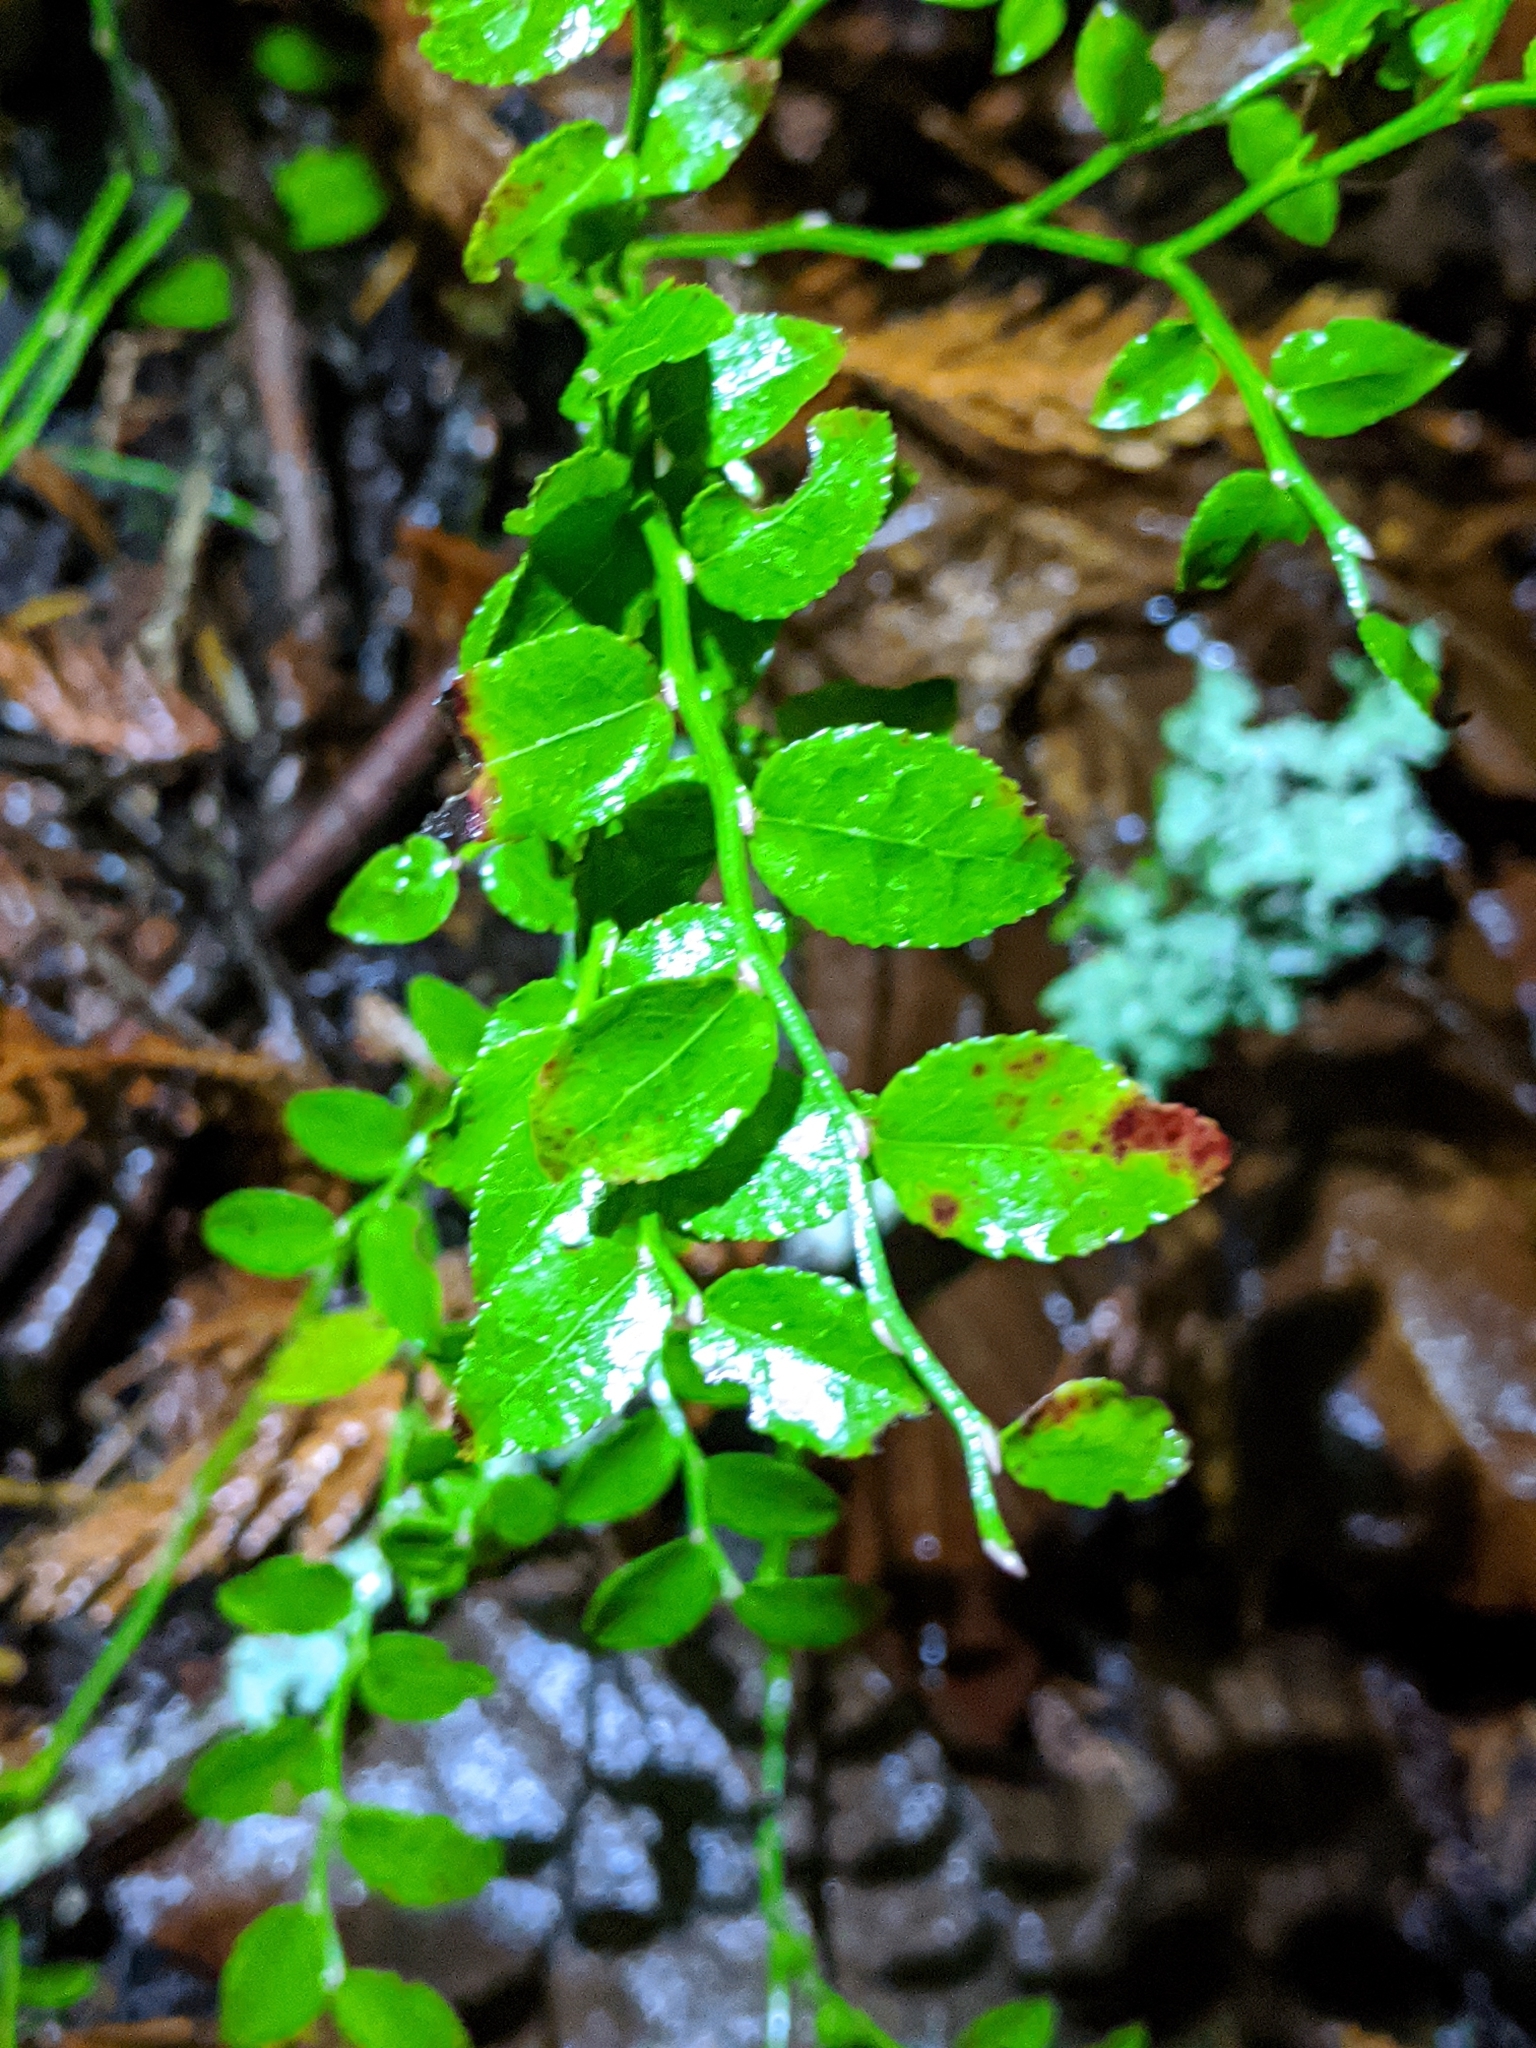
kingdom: Plantae
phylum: Tracheophyta
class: Magnoliopsida
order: Ericales
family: Ericaceae
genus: Vaccinium
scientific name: Vaccinium parvifolium
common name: Red-huckleberry
